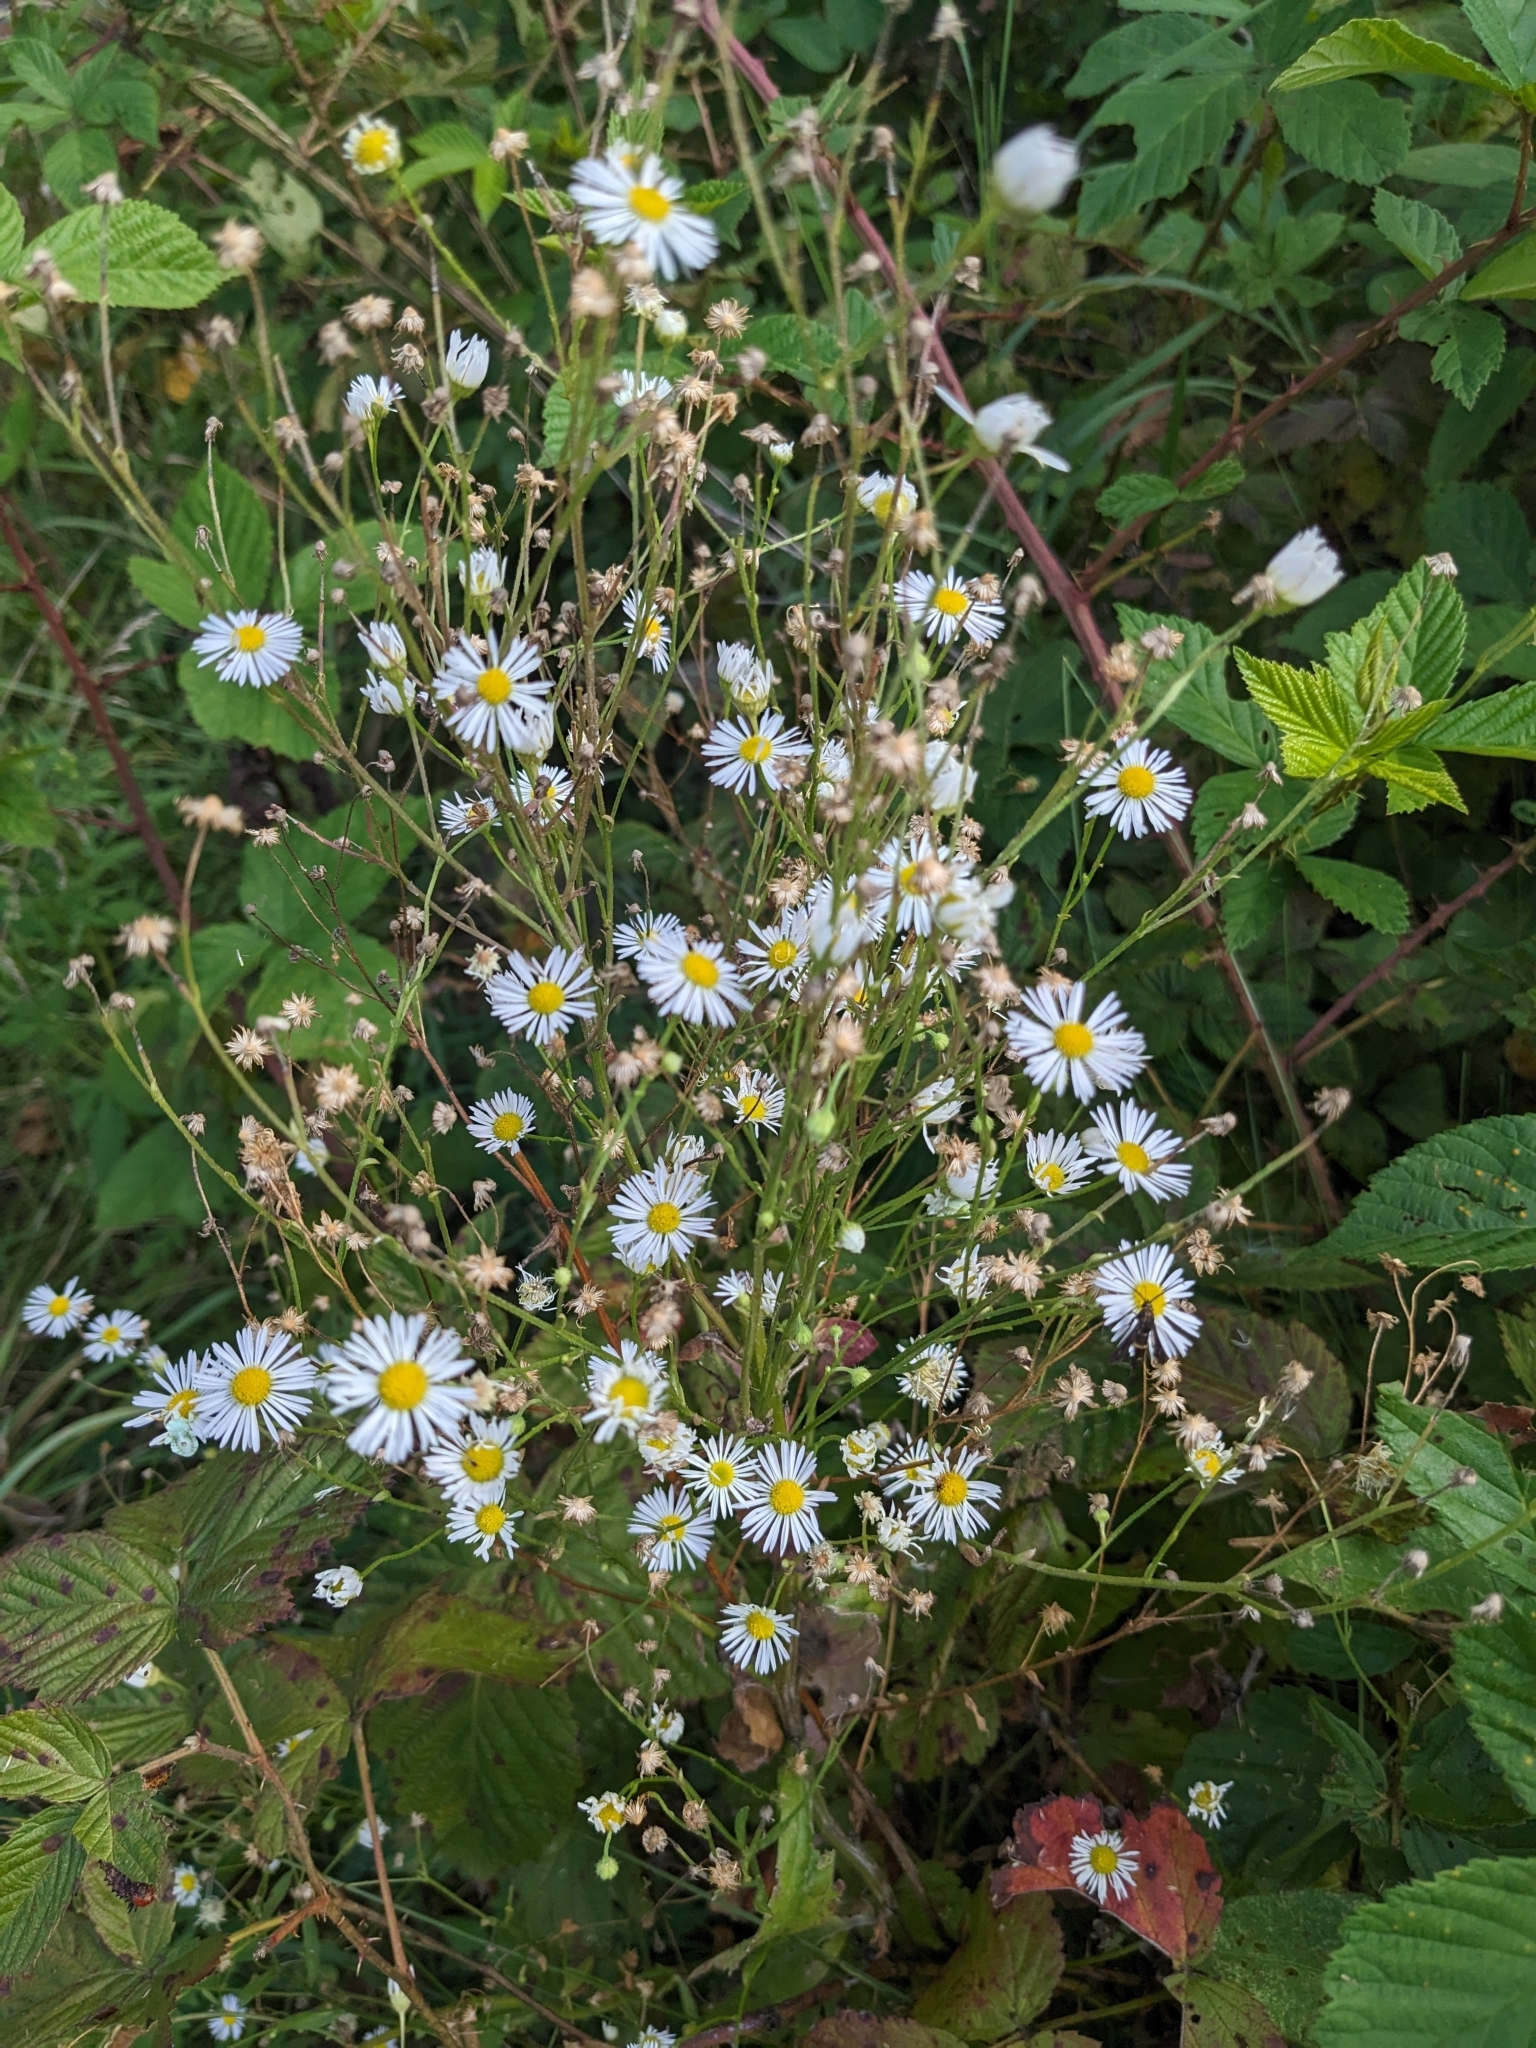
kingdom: Plantae
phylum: Tracheophyta
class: Magnoliopsida
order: Asterales
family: Asteraceae
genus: Erigeron
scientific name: Erigeron annuus
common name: Tall fleabane
